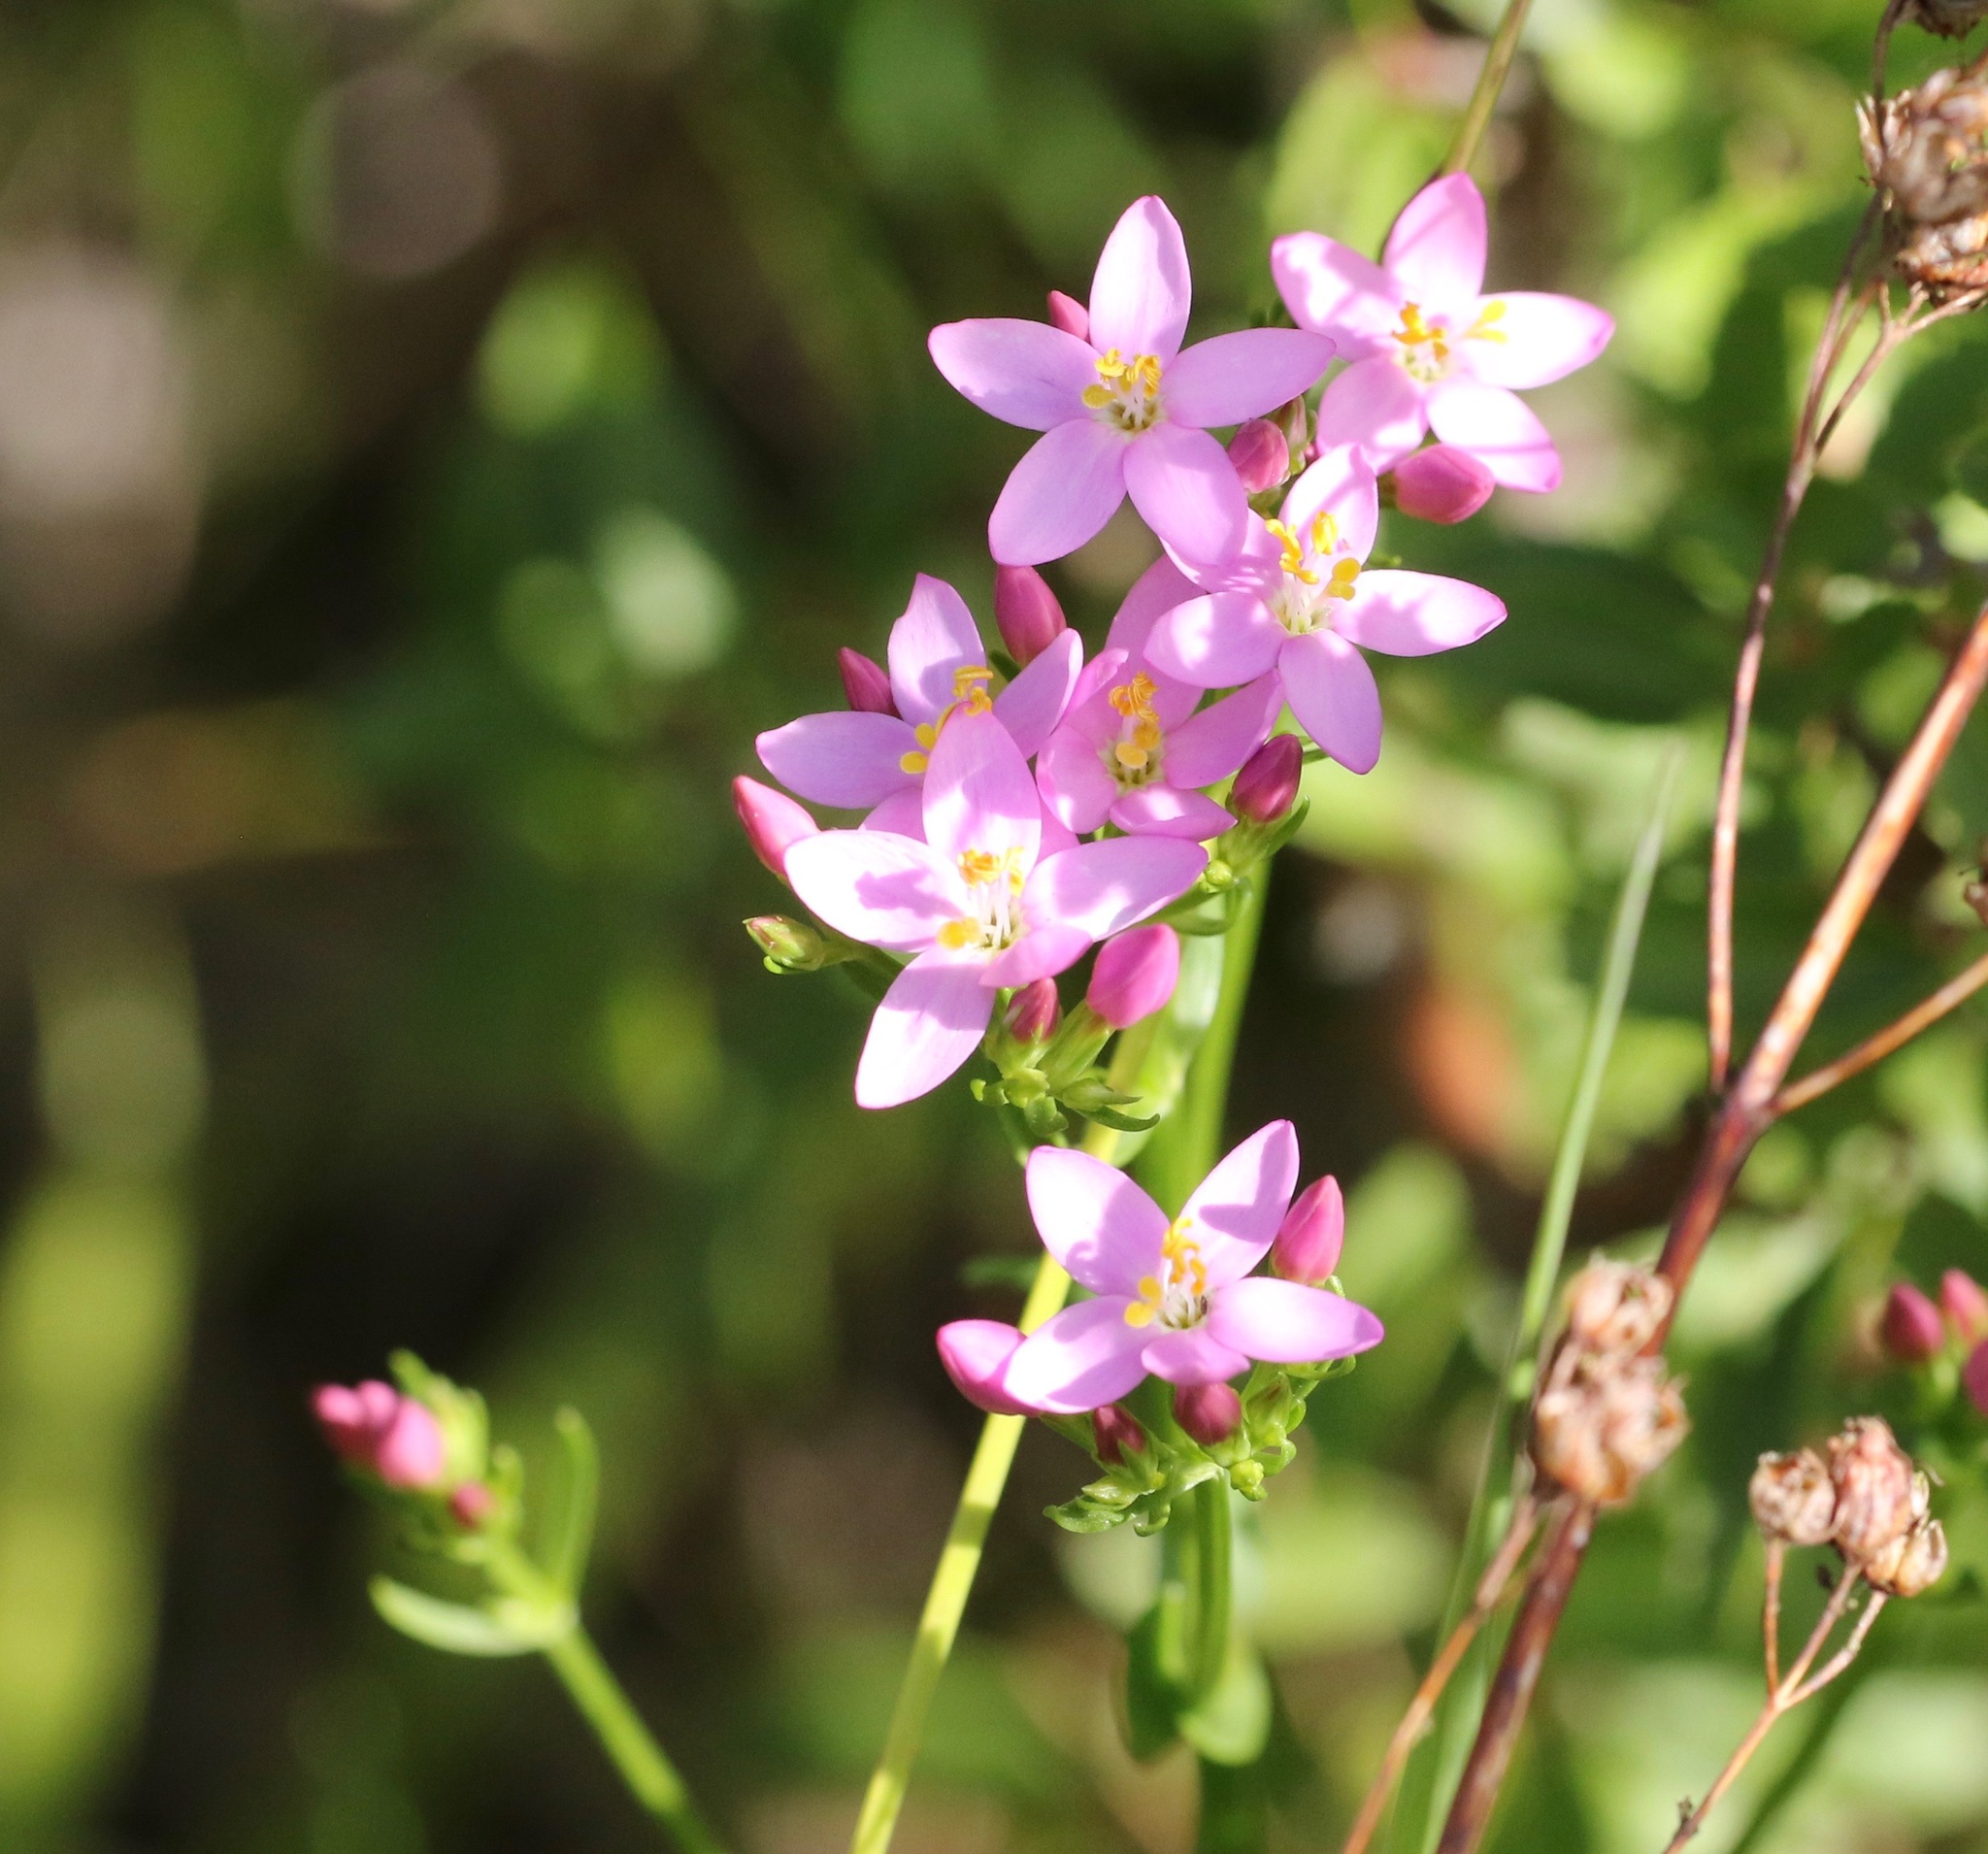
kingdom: Plantae
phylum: Tracheophyta
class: Magnoliopsida
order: Gentianales
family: Gentianaceae
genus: Centaurium
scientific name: Centaurium erythraea
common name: Common centaury
